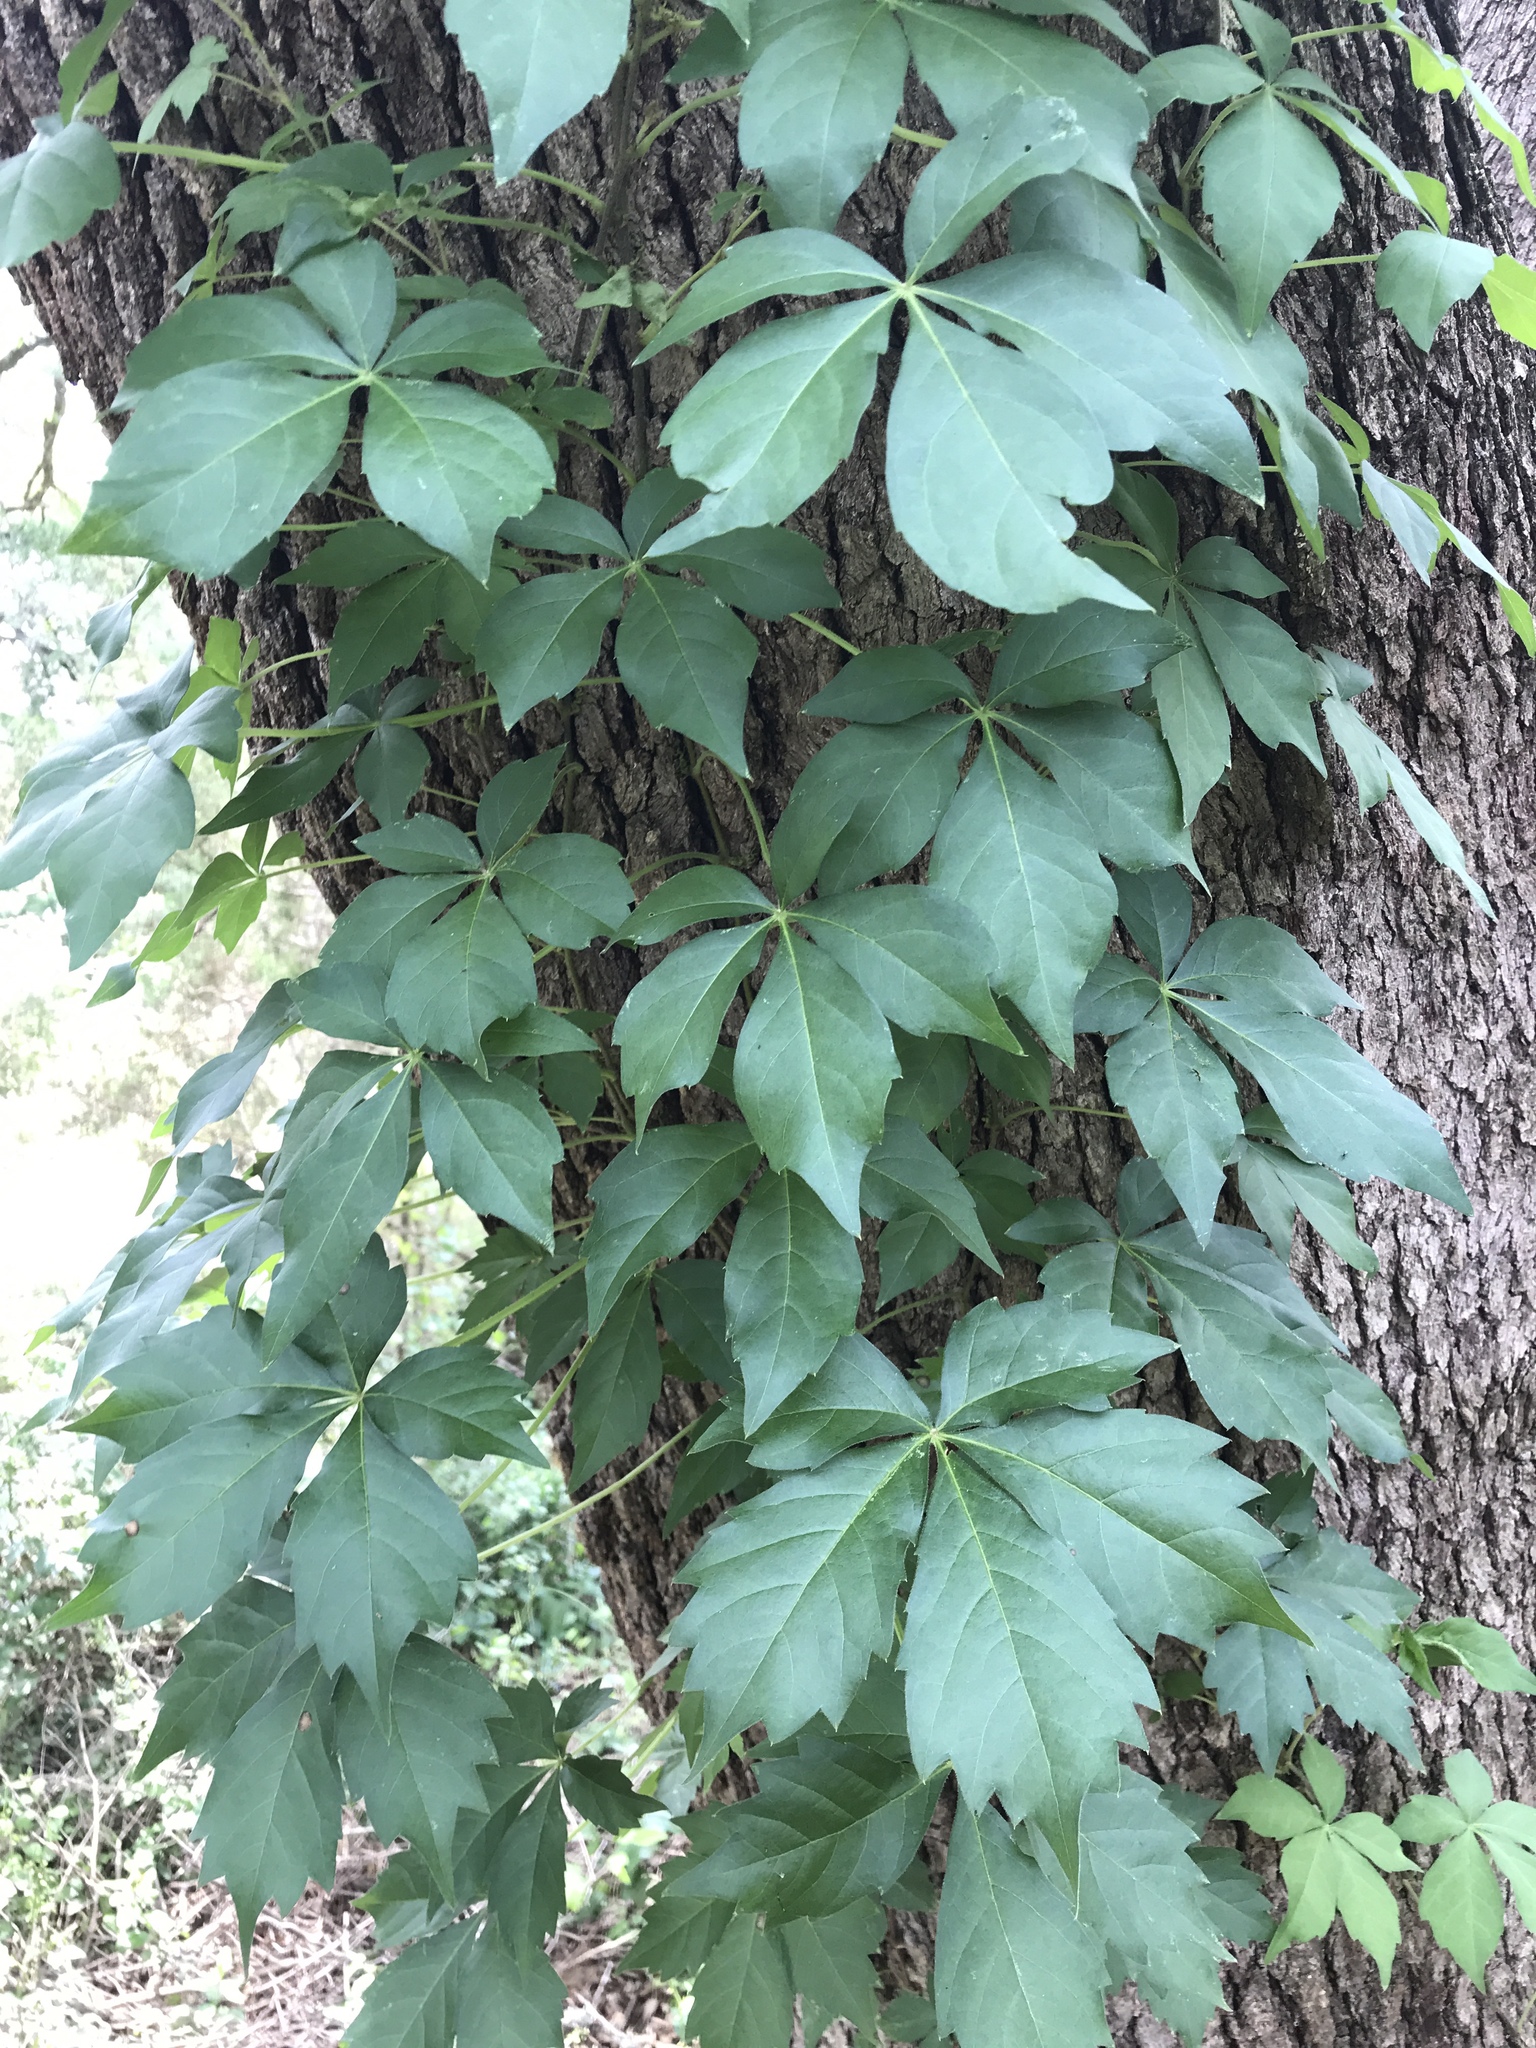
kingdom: Plantae
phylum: Tracheophyta
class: Magnoliopsida
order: Vitales
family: Vitaceae
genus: Parthenocissus
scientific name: Parthenocissus quinquefolia
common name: Virginia-creeper
